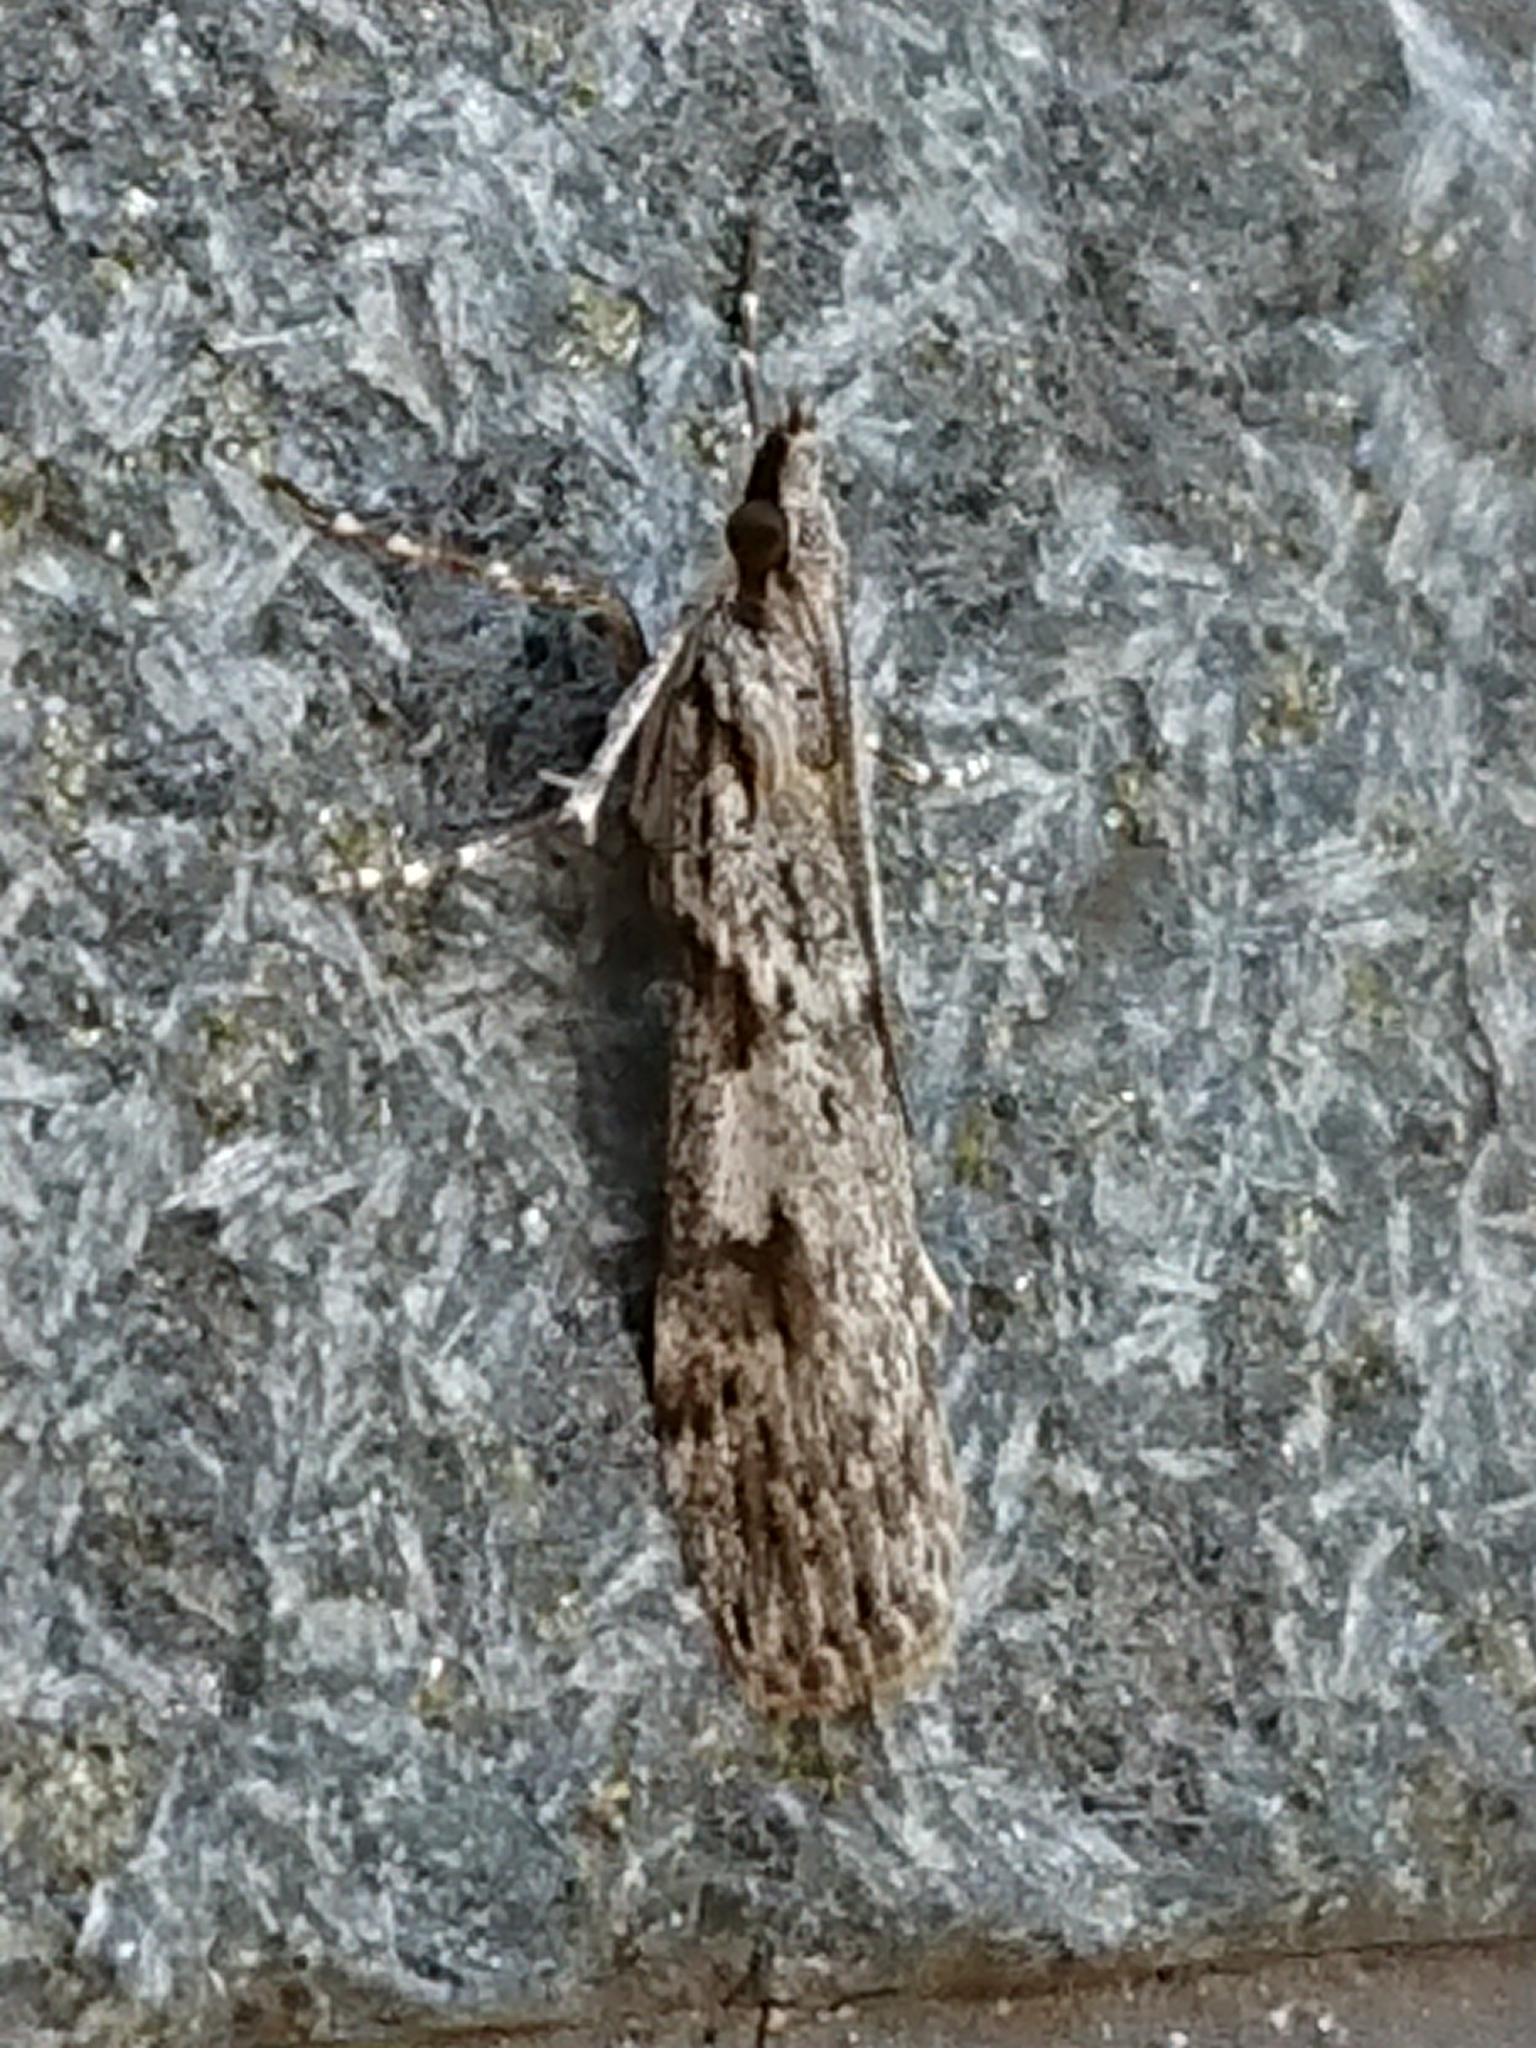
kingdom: Animalia
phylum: Arthropoda
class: Insecta
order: Lepidoptera
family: Crambidae
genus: Scoparia
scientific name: Scoparia halopis
